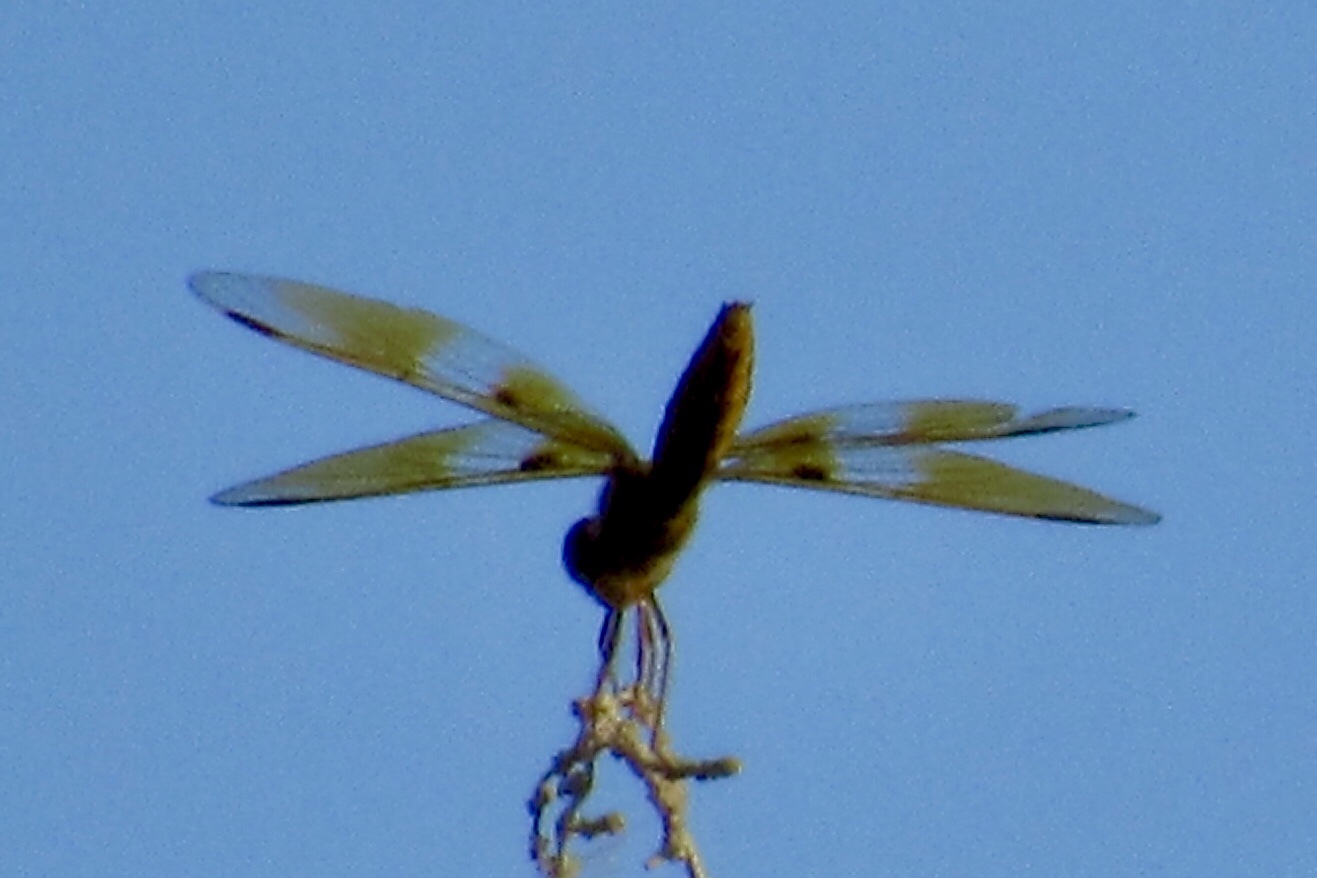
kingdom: Animalia
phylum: Arthropoda
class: Insecta
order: Odonata
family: Libellulidae
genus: Perithemis
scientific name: Perithemis intensa
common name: Mexican amberwing
